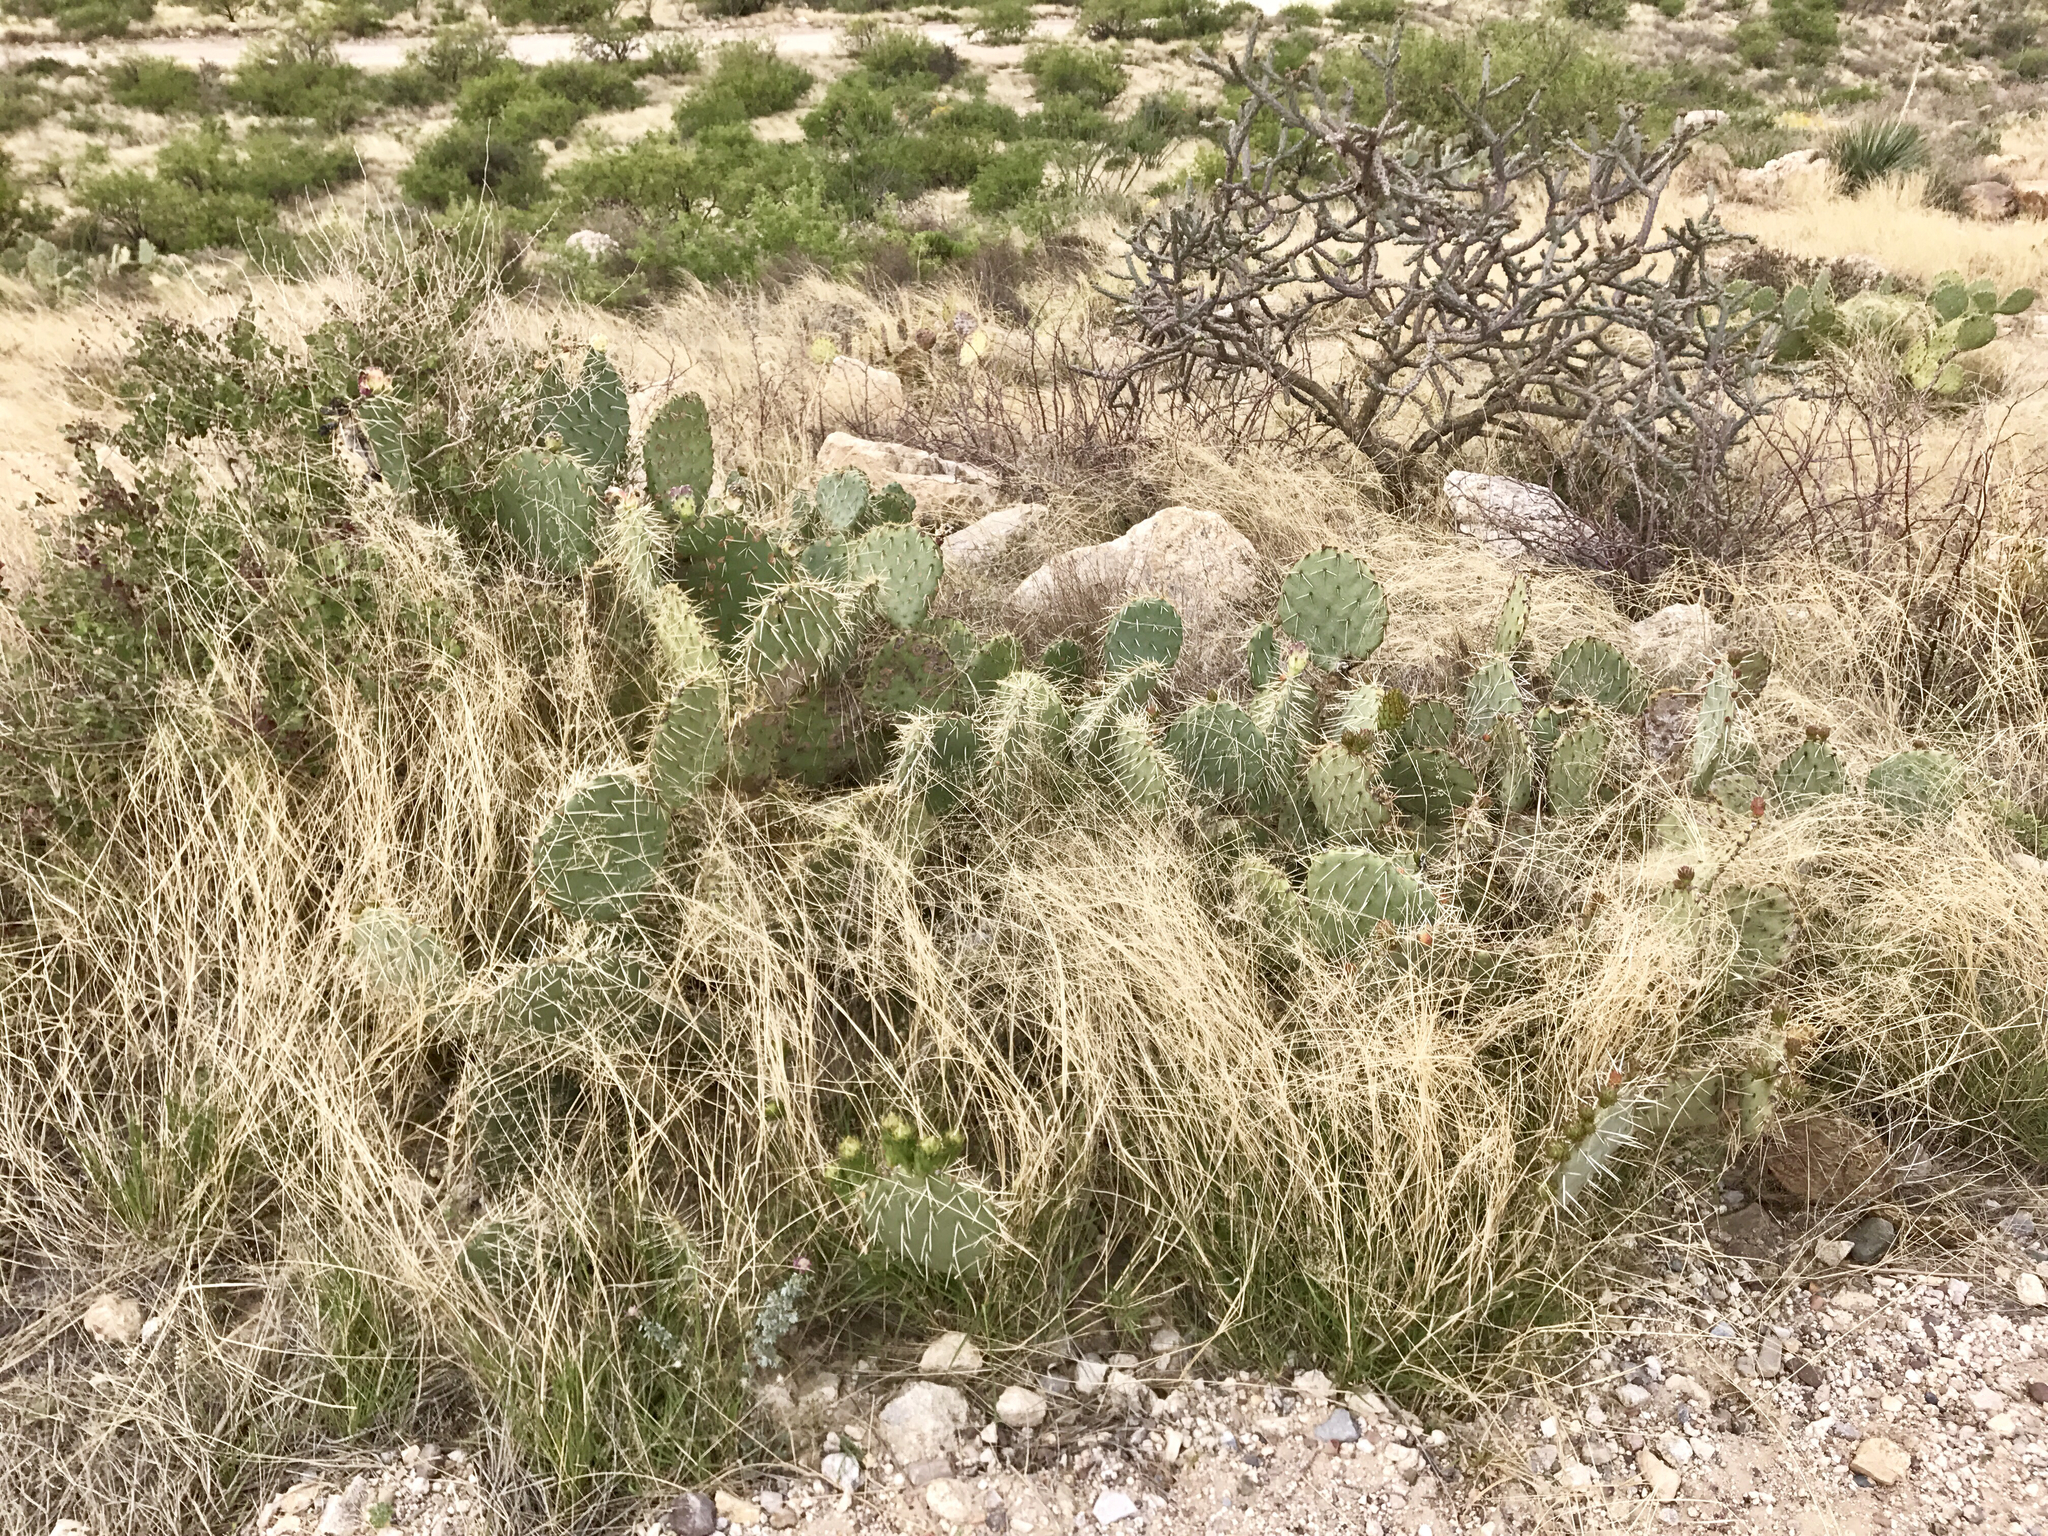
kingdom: Plantae
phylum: Tracheophyta
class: Magnoliopsida
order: Caryophyllales
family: Cactaceae
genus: Opuntia
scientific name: Opuntia engelmannii
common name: Cactus-apple
